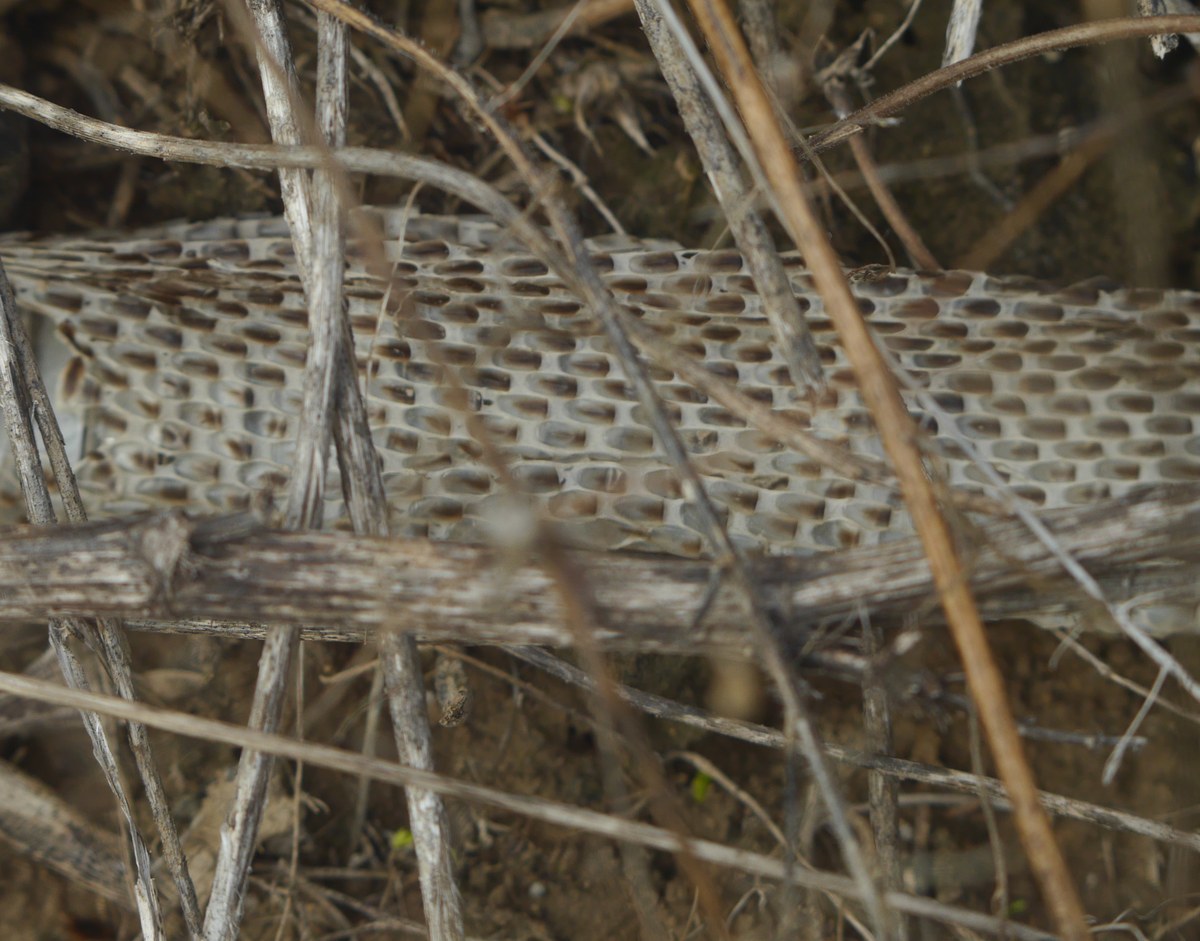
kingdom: Animalia
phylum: Chordata
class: Squamata
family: Colubridae
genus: Elaphe
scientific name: Elaphe sauromates
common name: Eastern four-lined ratsnake
